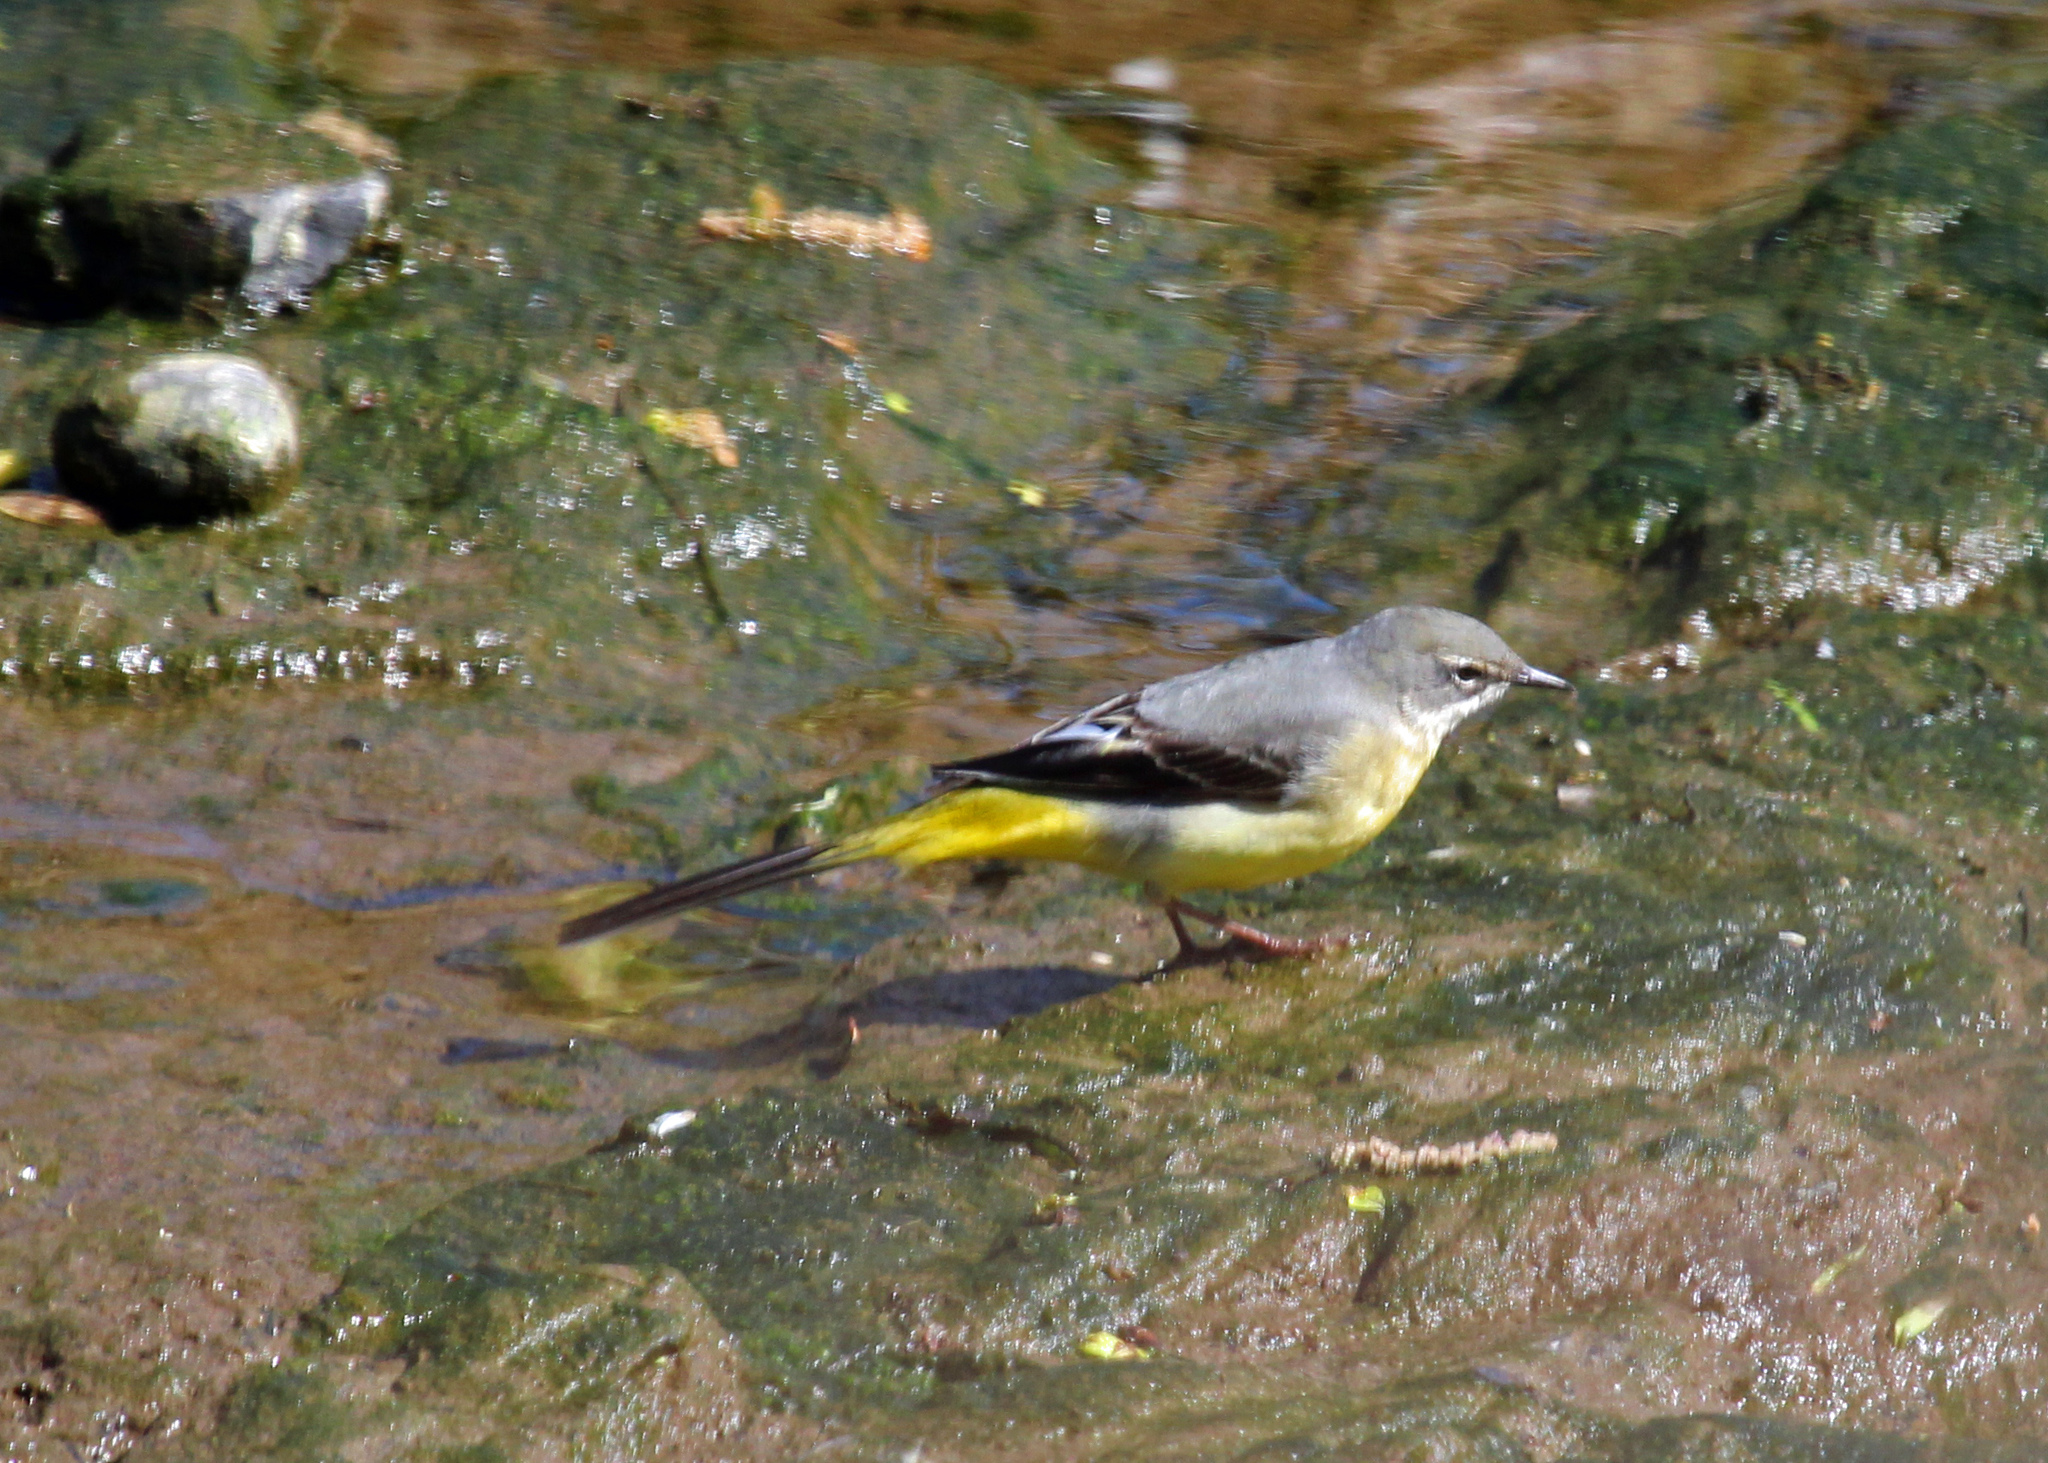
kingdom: Animalia
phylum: Chordata
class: Aves
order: Passeriformes
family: Motacillidae
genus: Motacilla
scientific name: Motacilla cinerea
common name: Grey wagtail
